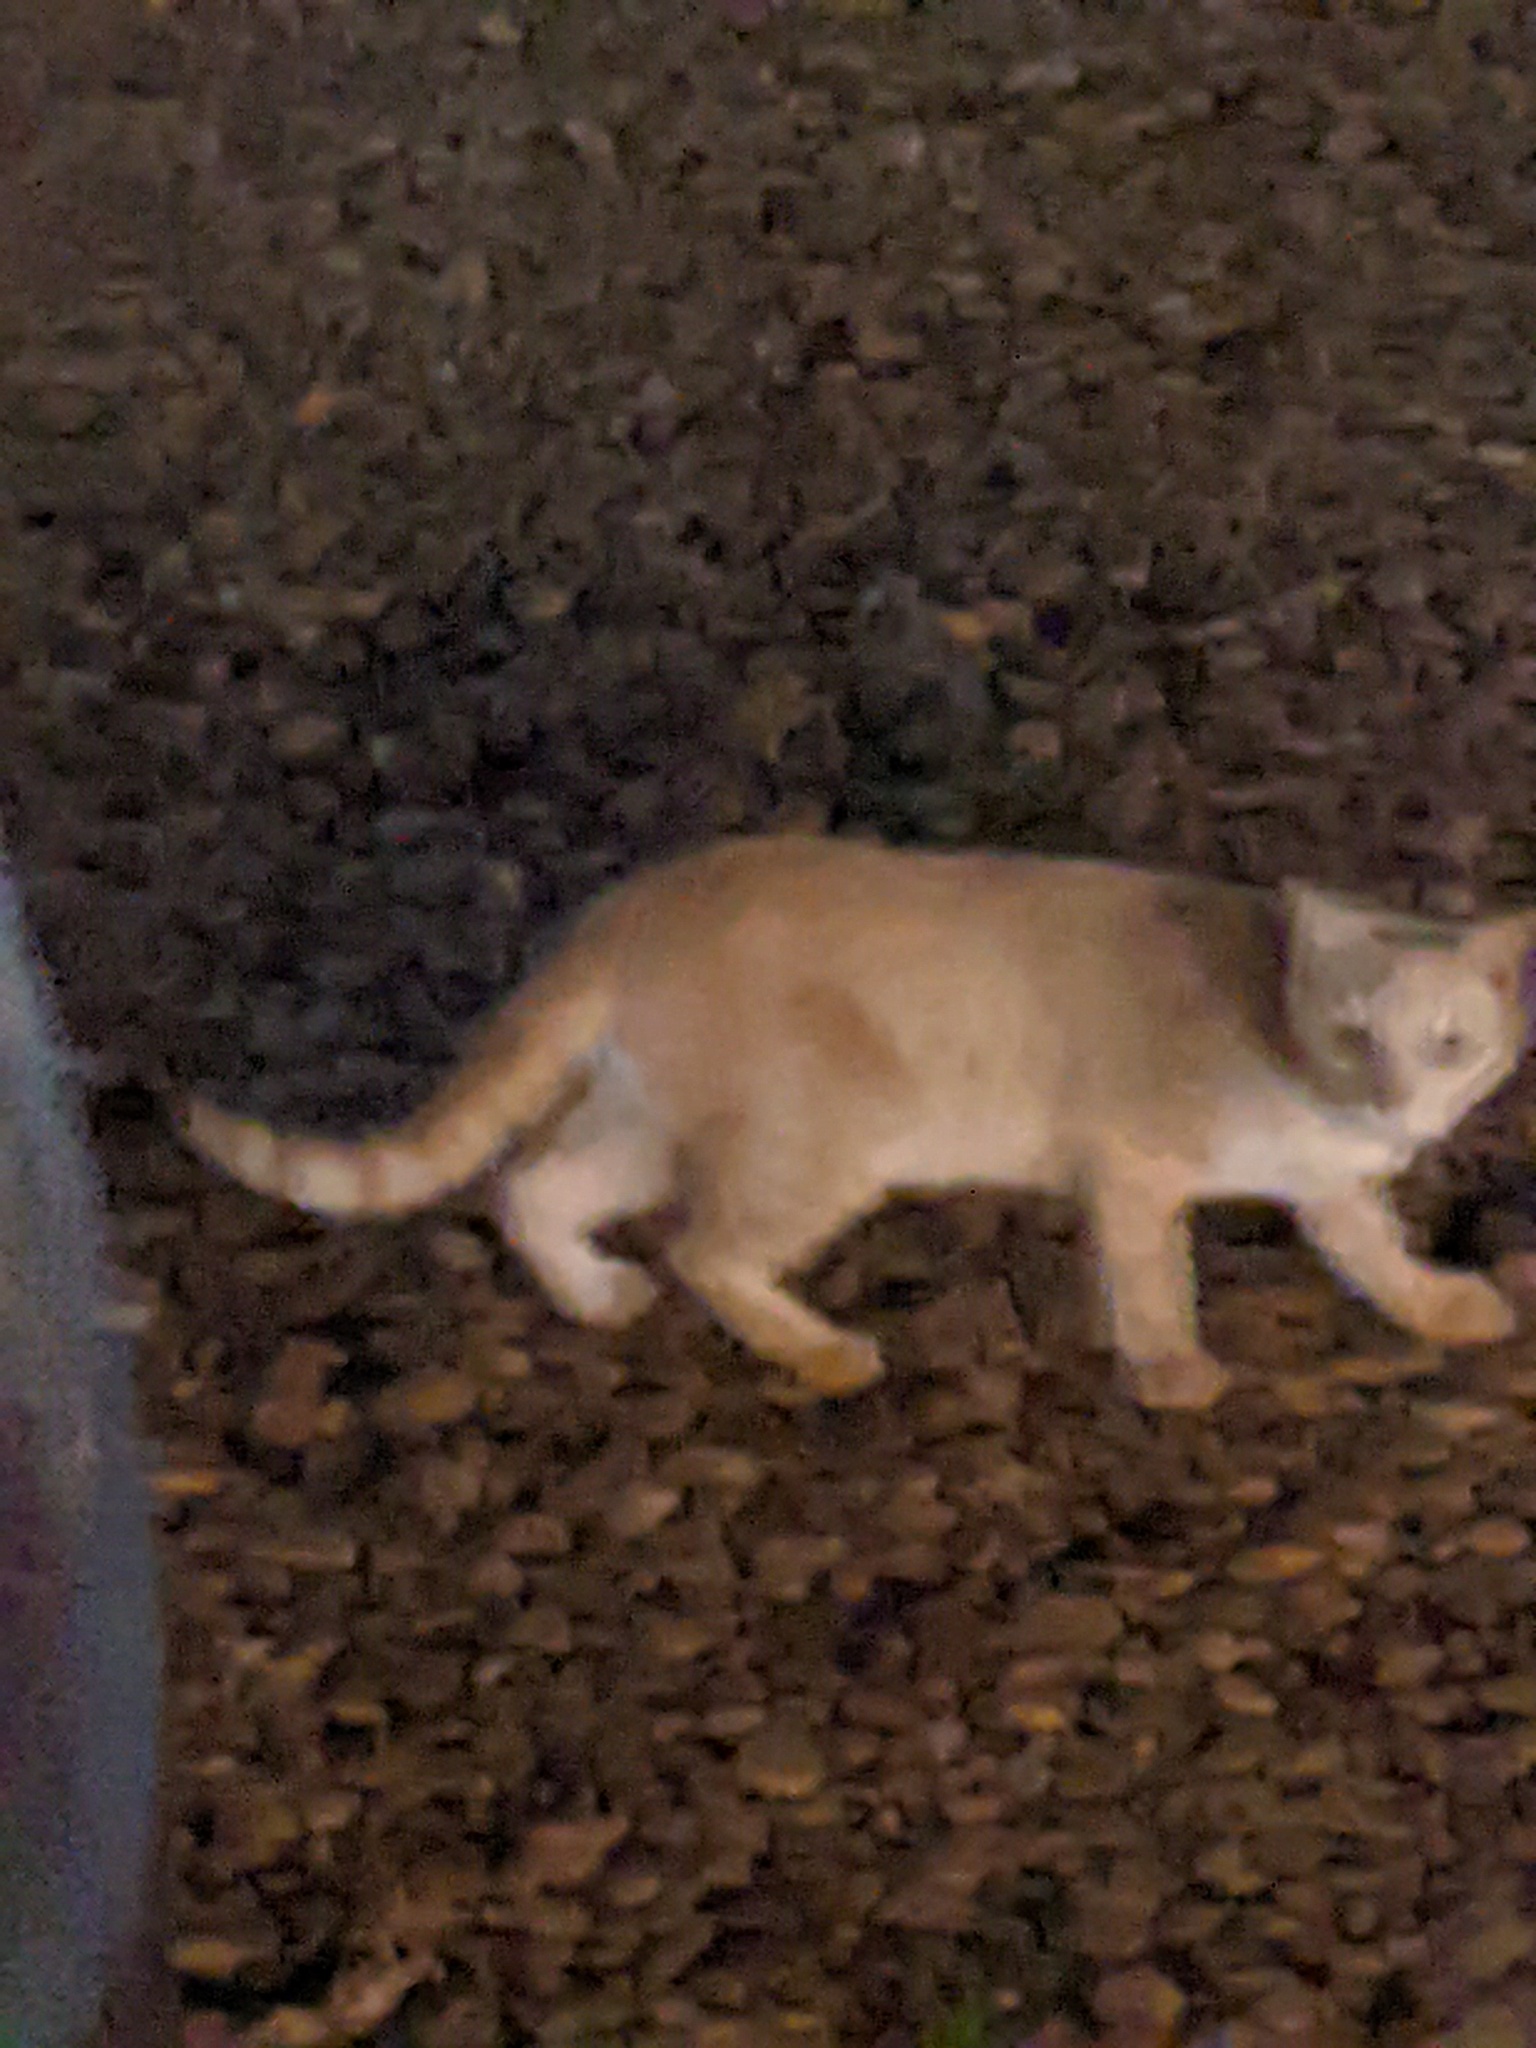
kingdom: Animalia
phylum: Chordata
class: Mammalia
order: Carnivora
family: Felidae
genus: Felis
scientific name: Felis catus
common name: Domestic cat
